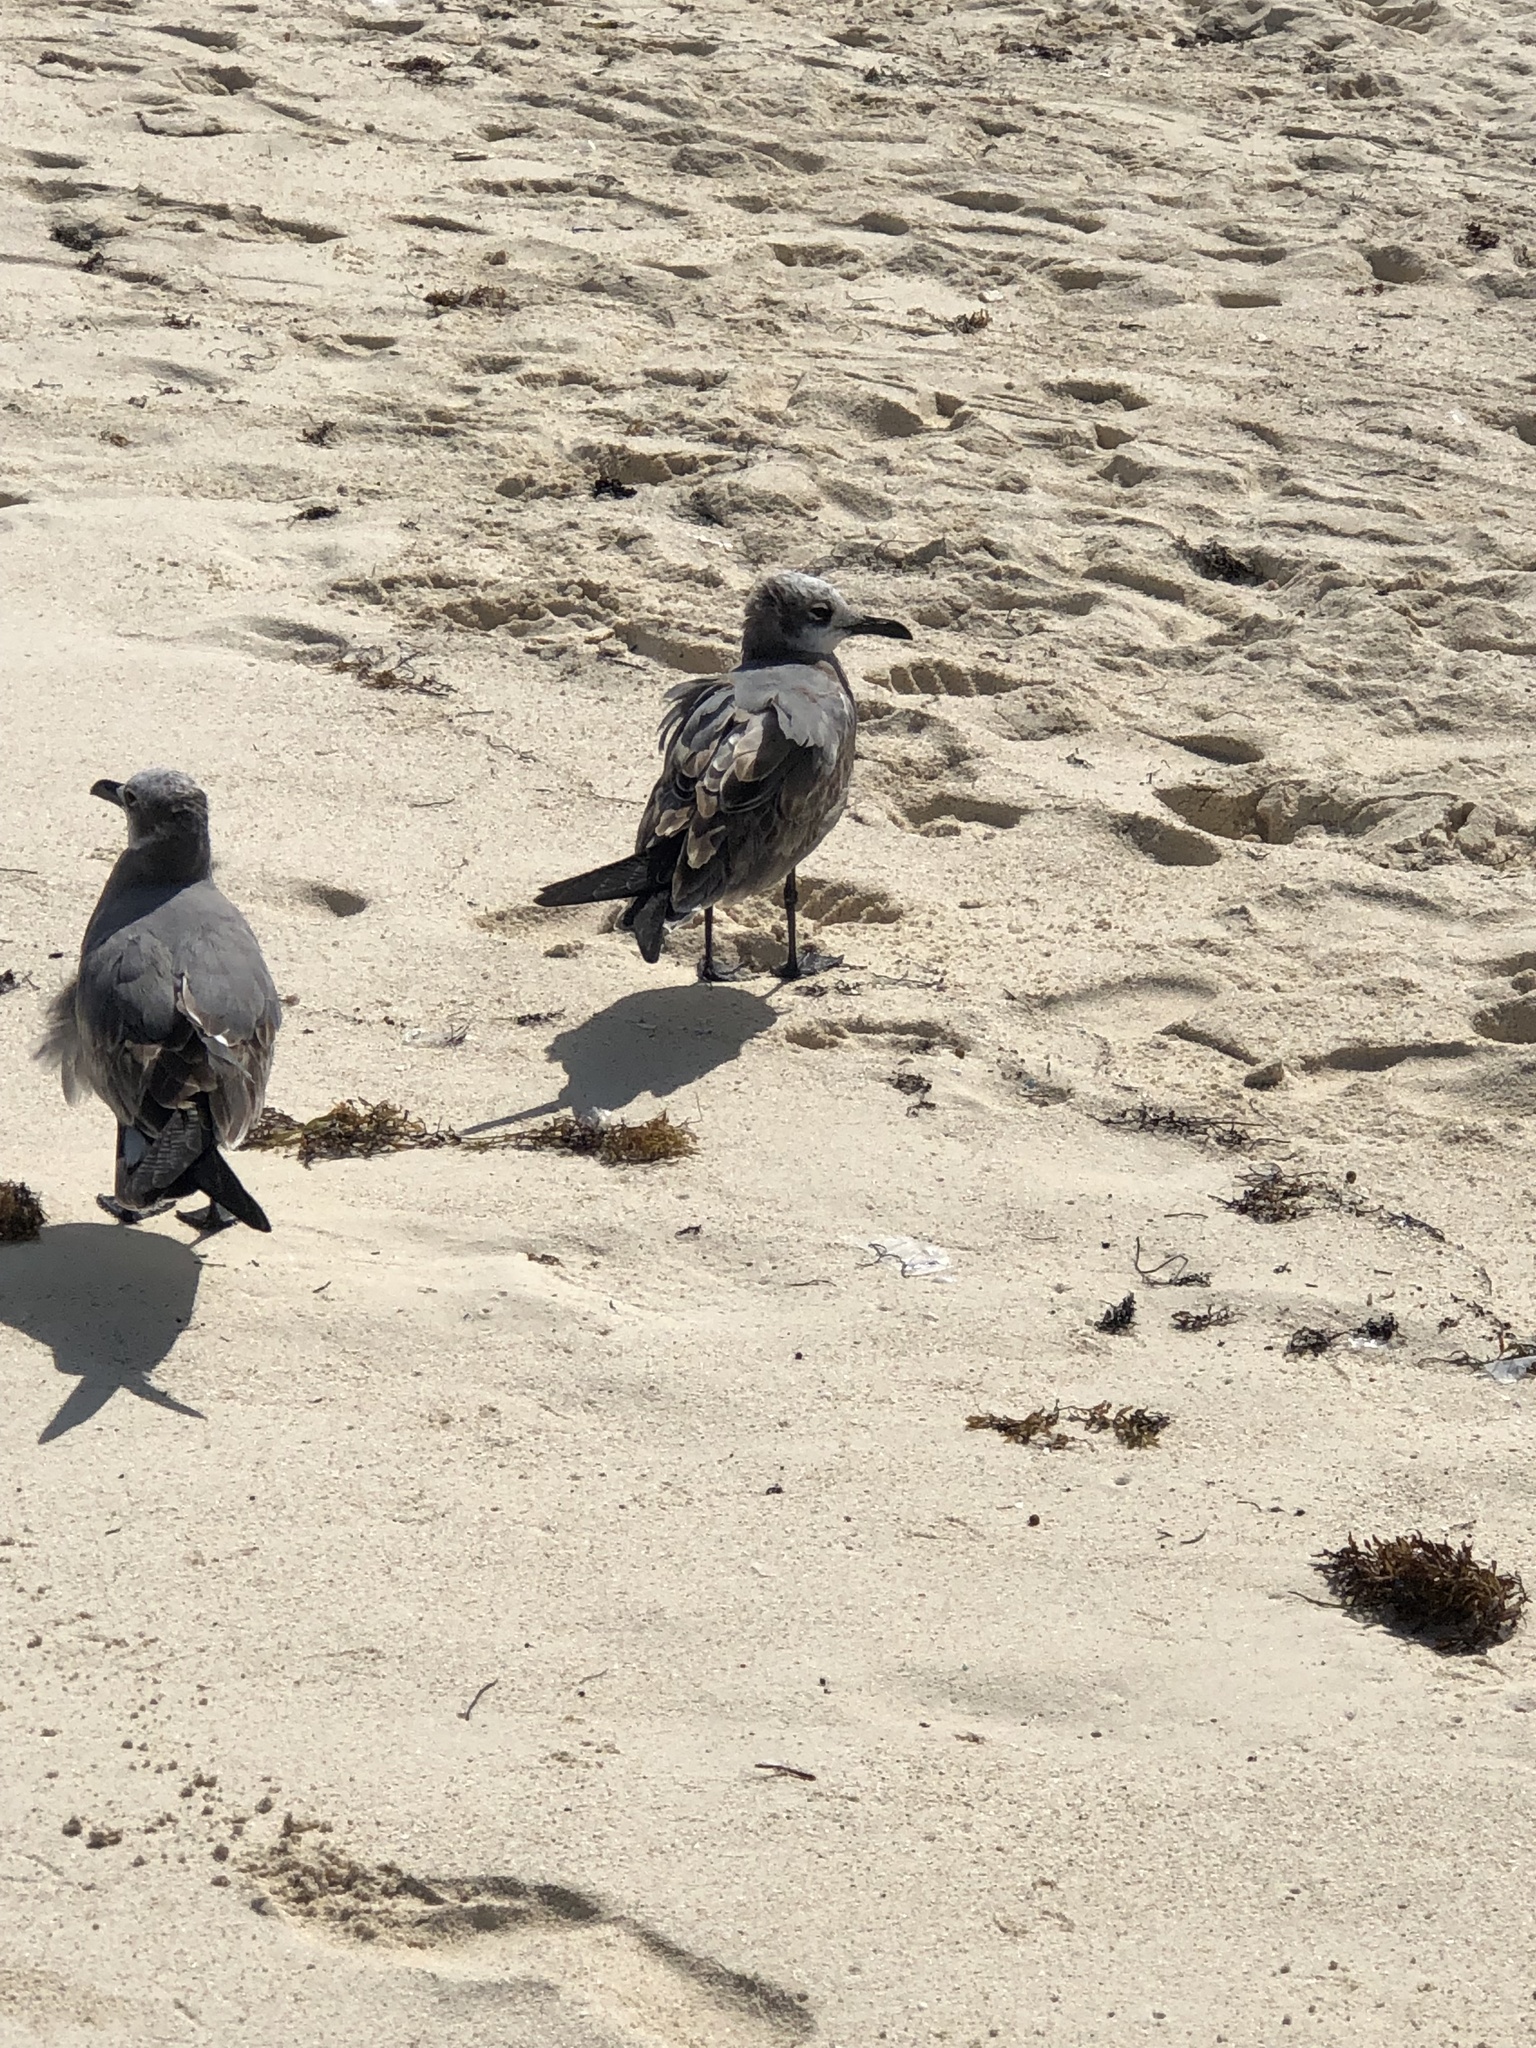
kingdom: Animalia
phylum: Chordata
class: Aves
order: Charadriiformes
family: Laridae
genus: Leucophaeus
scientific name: Leucophaeus atricilla
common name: Laughing gull
